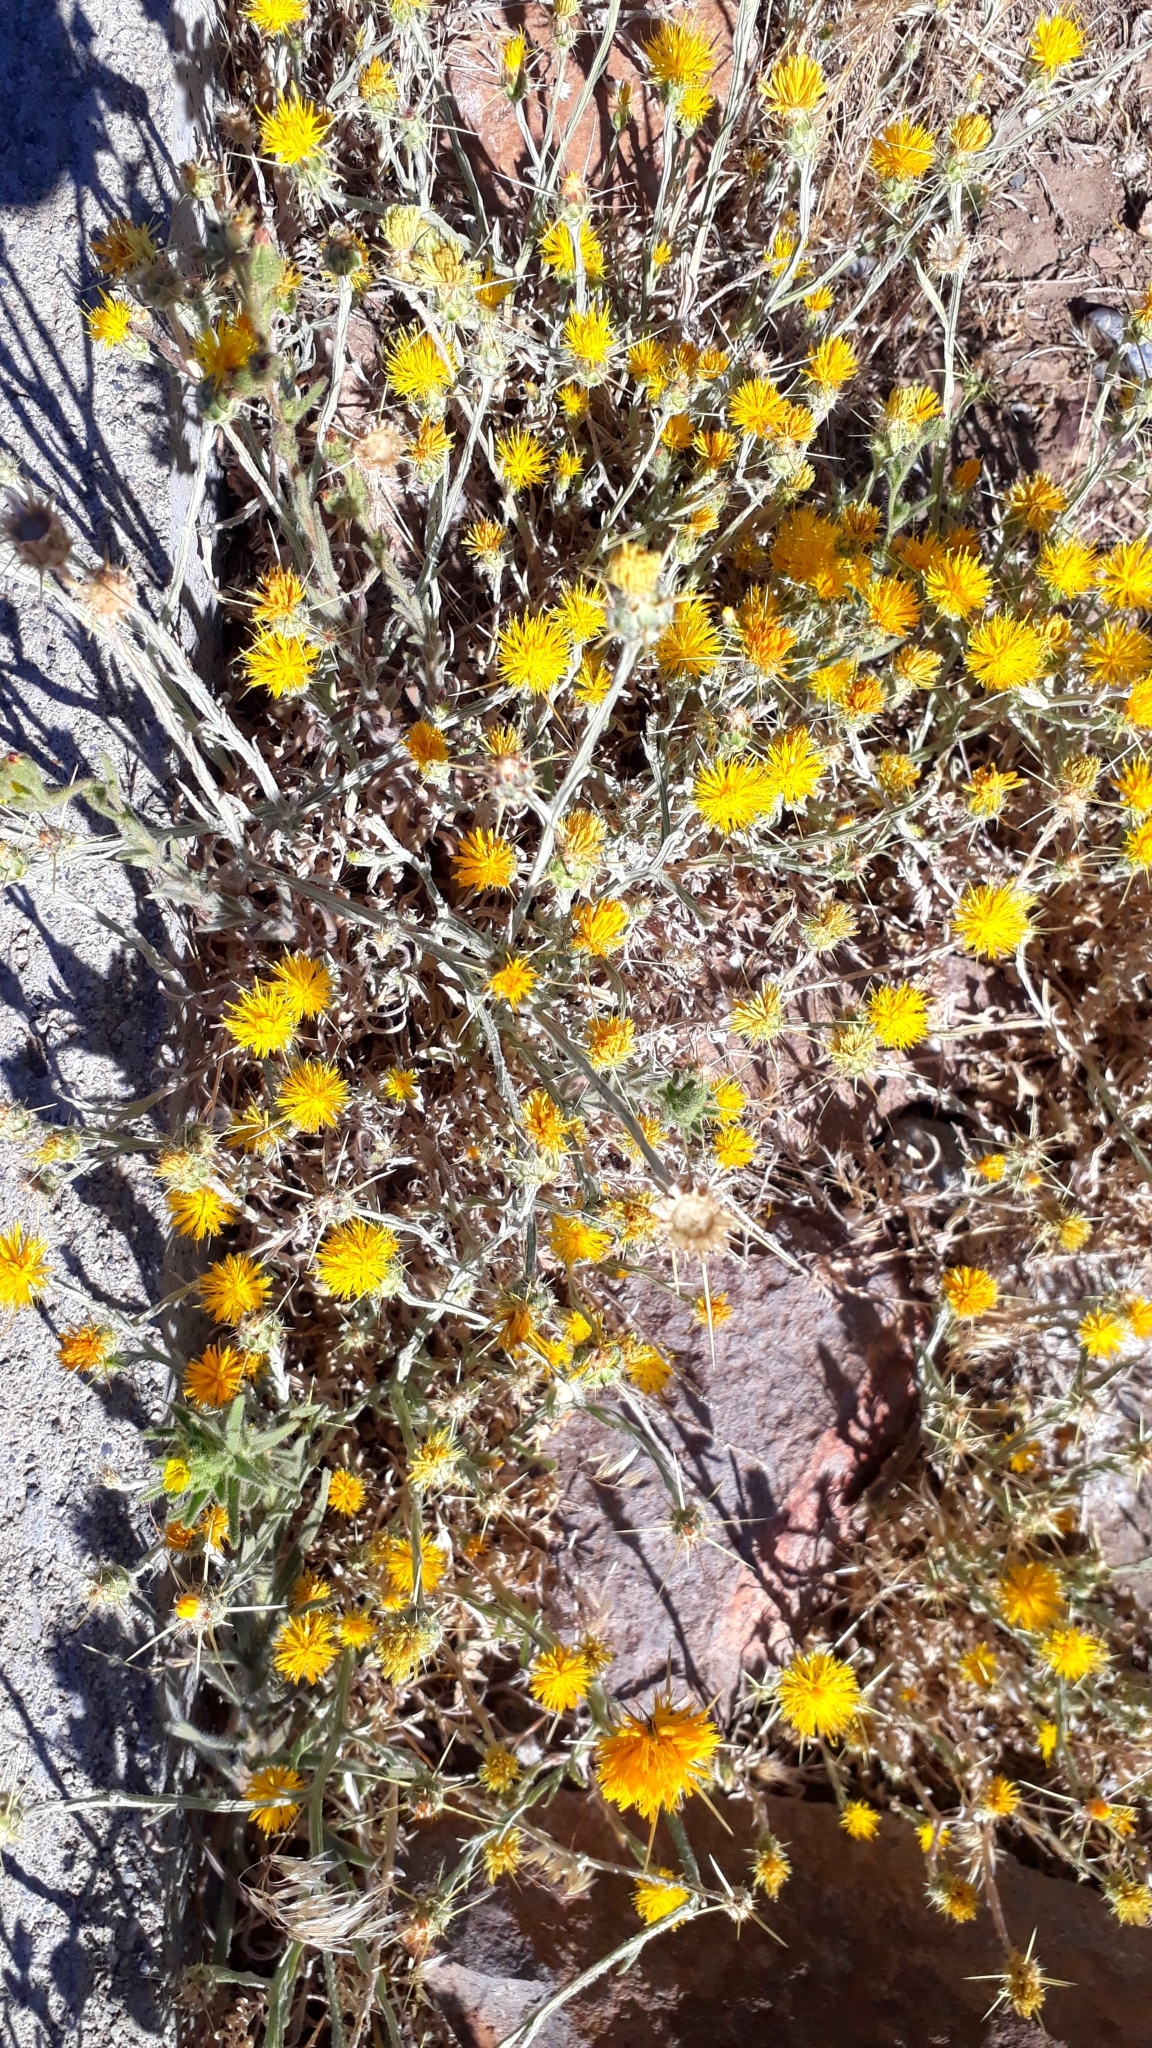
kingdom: Plantae
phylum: Tracheophyta
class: Magnoliopsida
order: Asterales
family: Asteraceae
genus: Centaurea
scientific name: Centaurea solstitialis
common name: Yellow star-thistle
